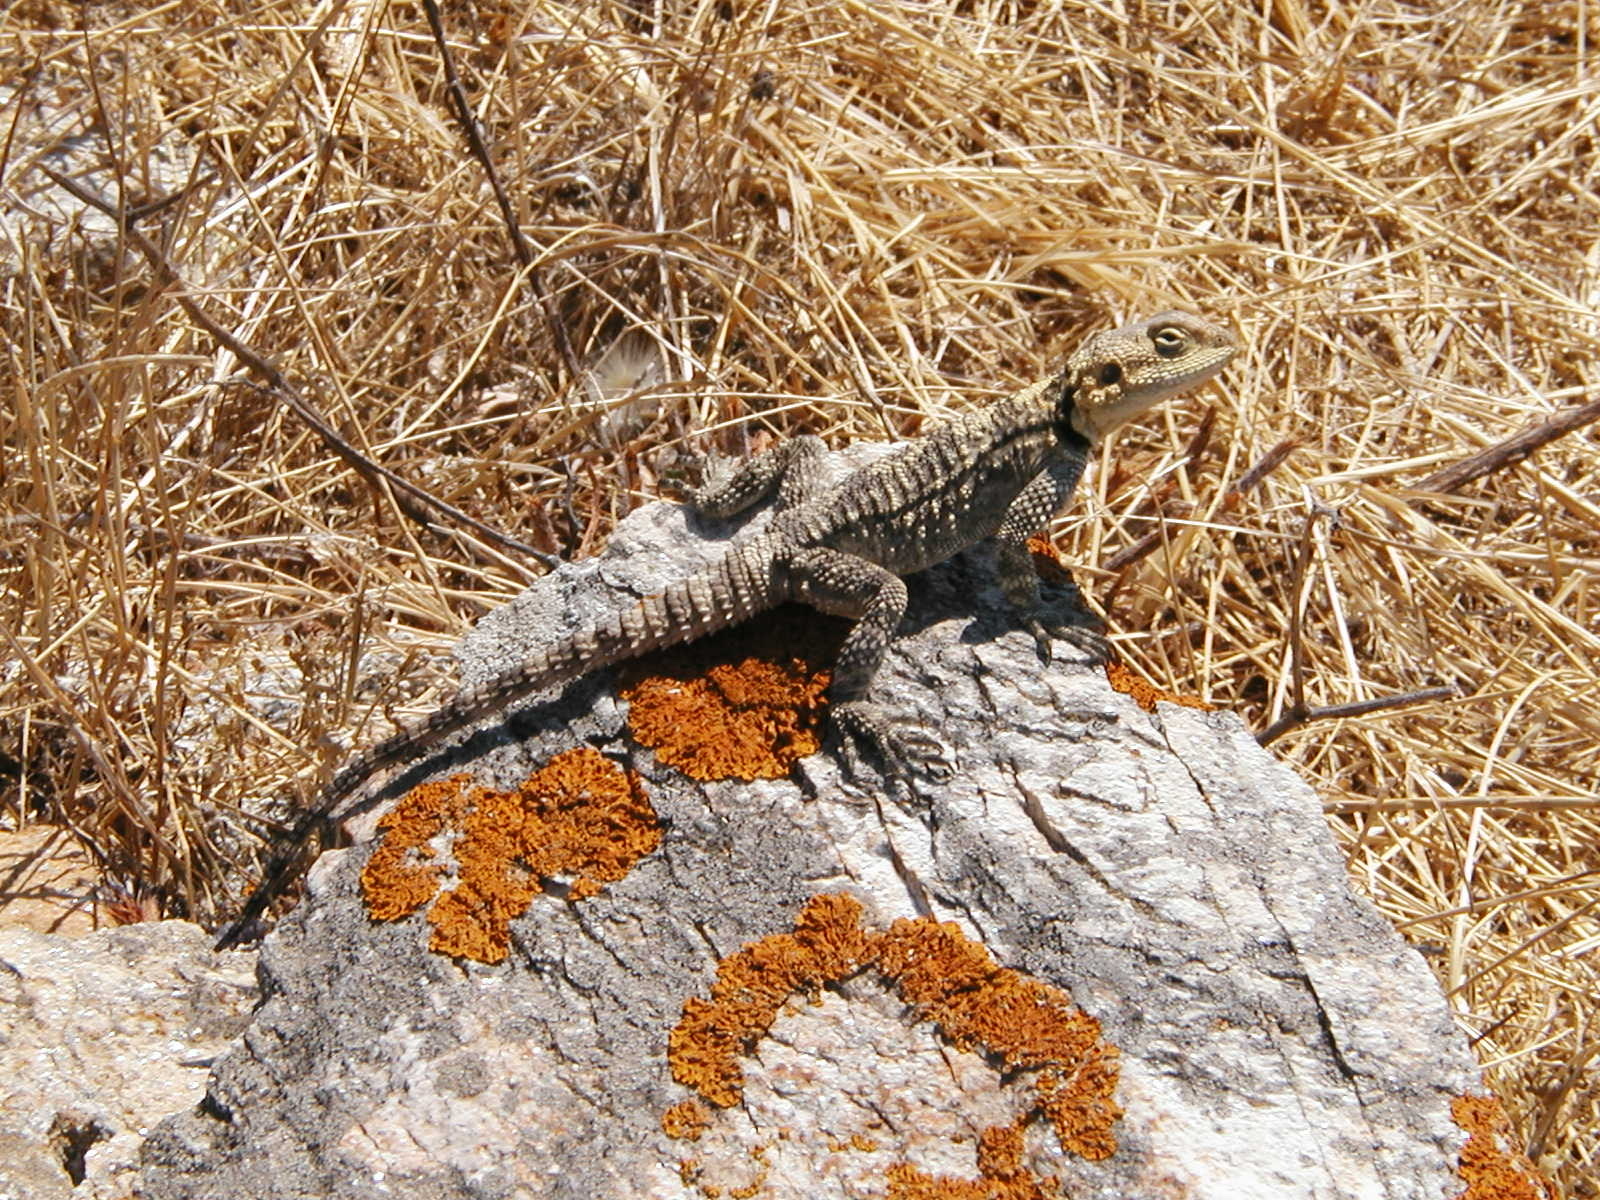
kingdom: Animalia
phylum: Chordata
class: Squamata
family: Agamidae
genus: Stellagama
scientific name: Stellagama stellio
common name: Starred agama
